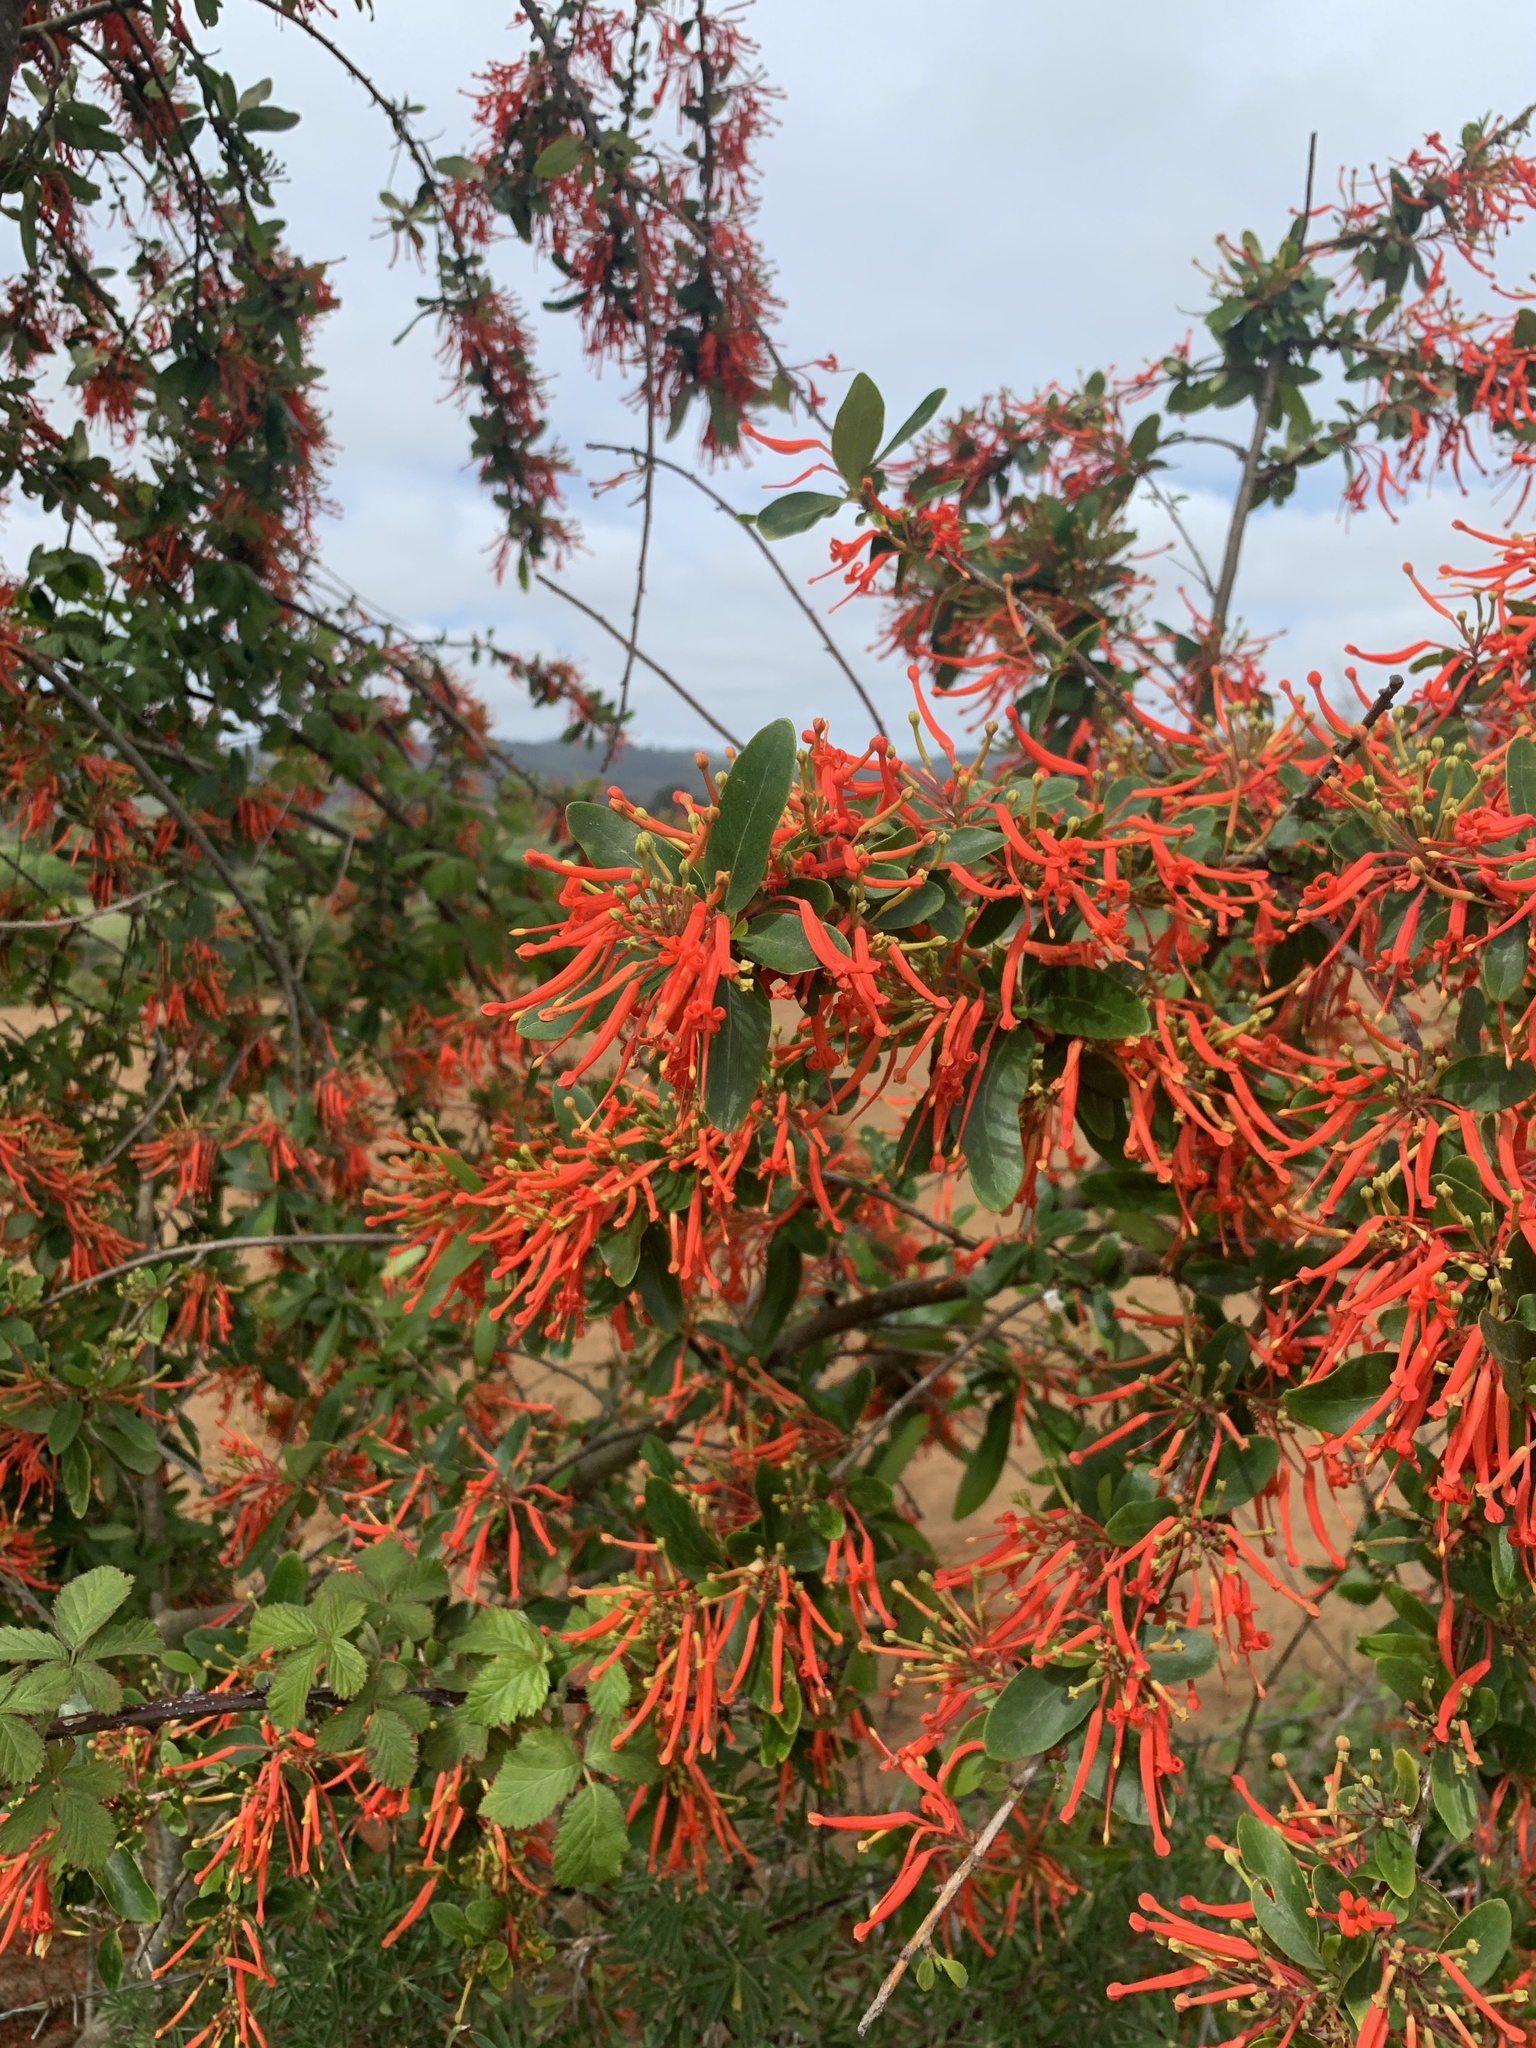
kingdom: Plantae
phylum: Tracheophyta
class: Magnoliopsida
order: Proteales
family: Proteaceae
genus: Embothrium
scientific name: Embothrium coccineum
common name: Chilean firebush
